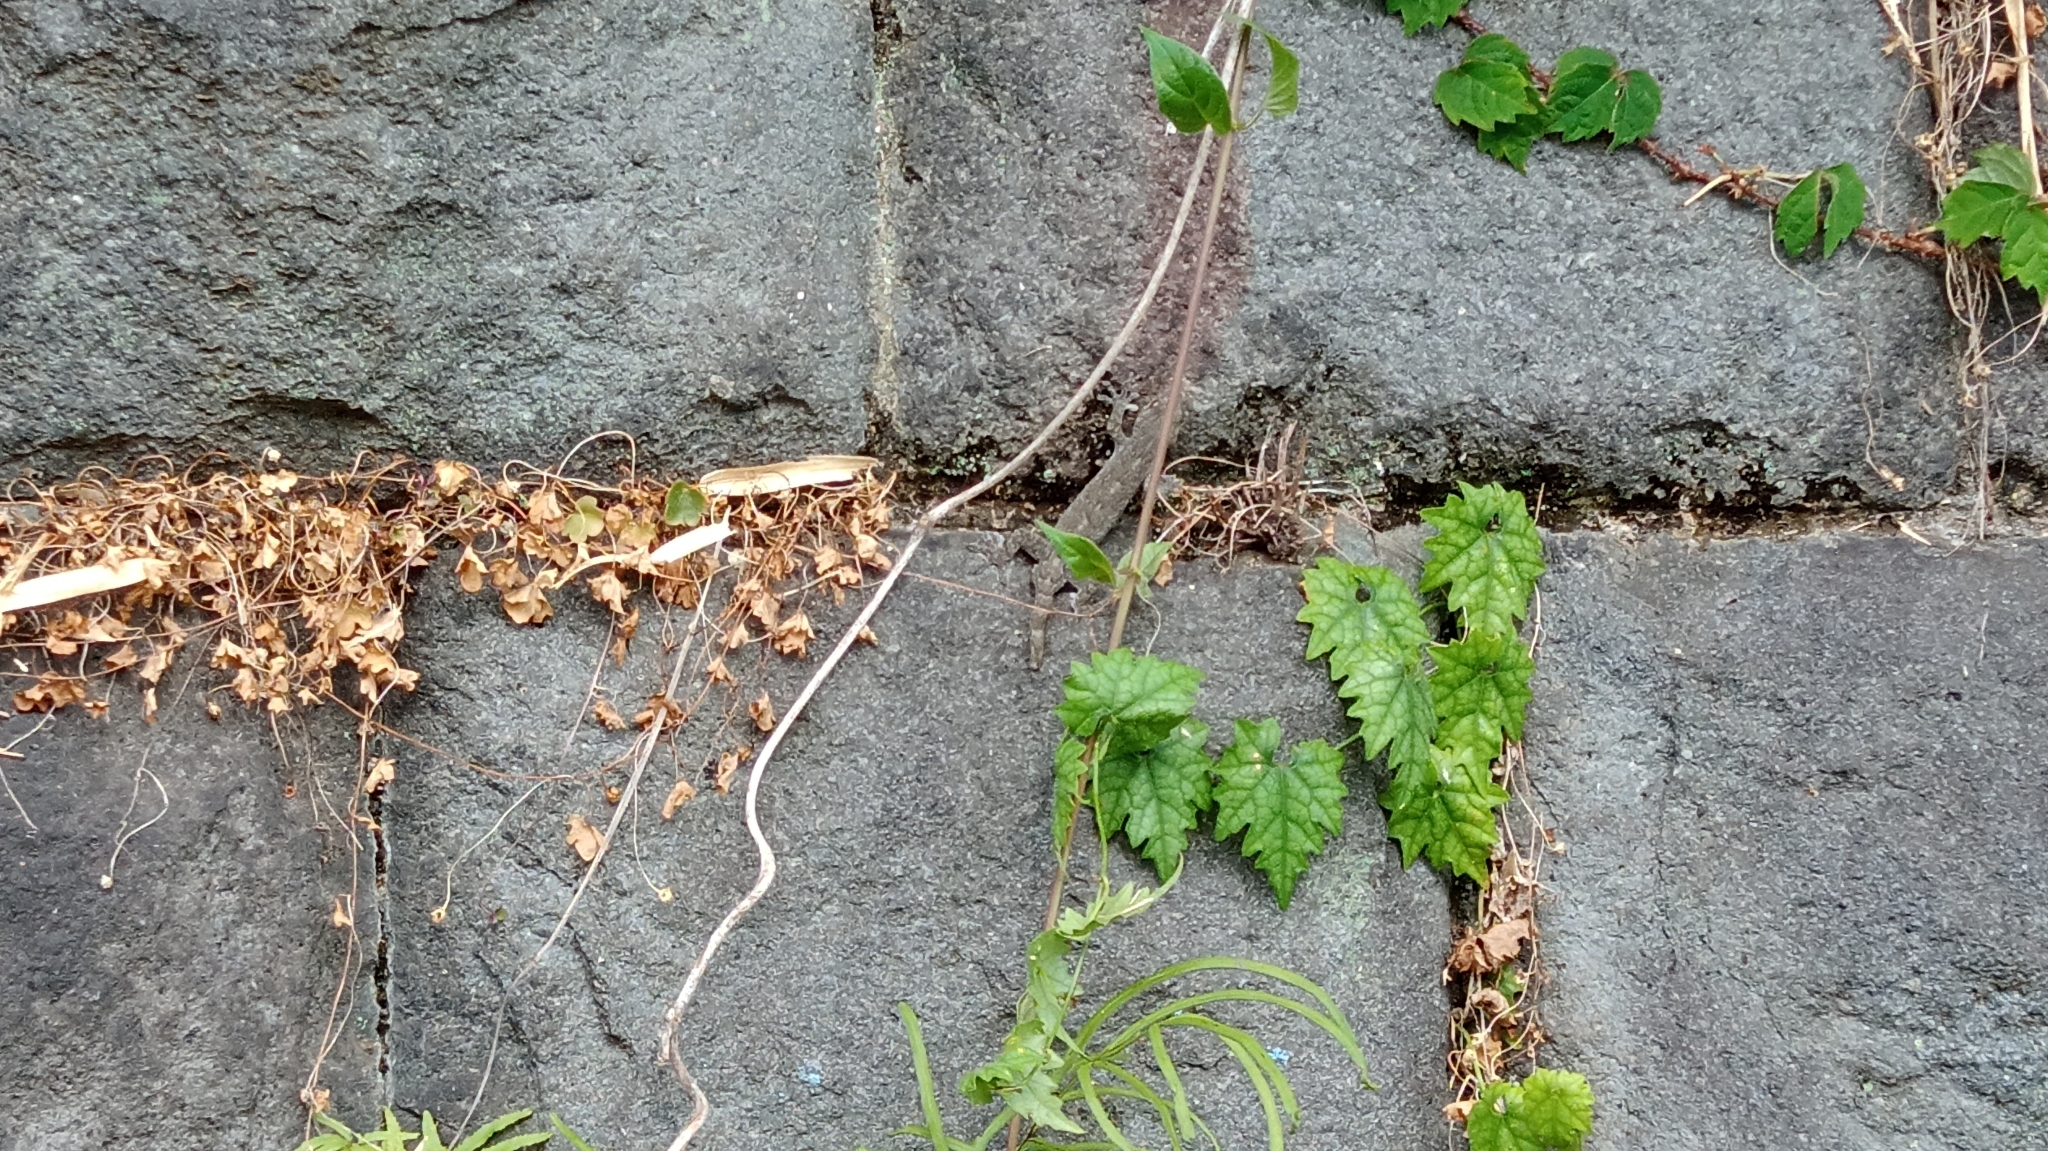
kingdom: Animalia
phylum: Chordata
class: Squamata
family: Gekkonidae
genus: Gekko
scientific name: Gekko japonicus
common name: Schlegel's japanese gecko
